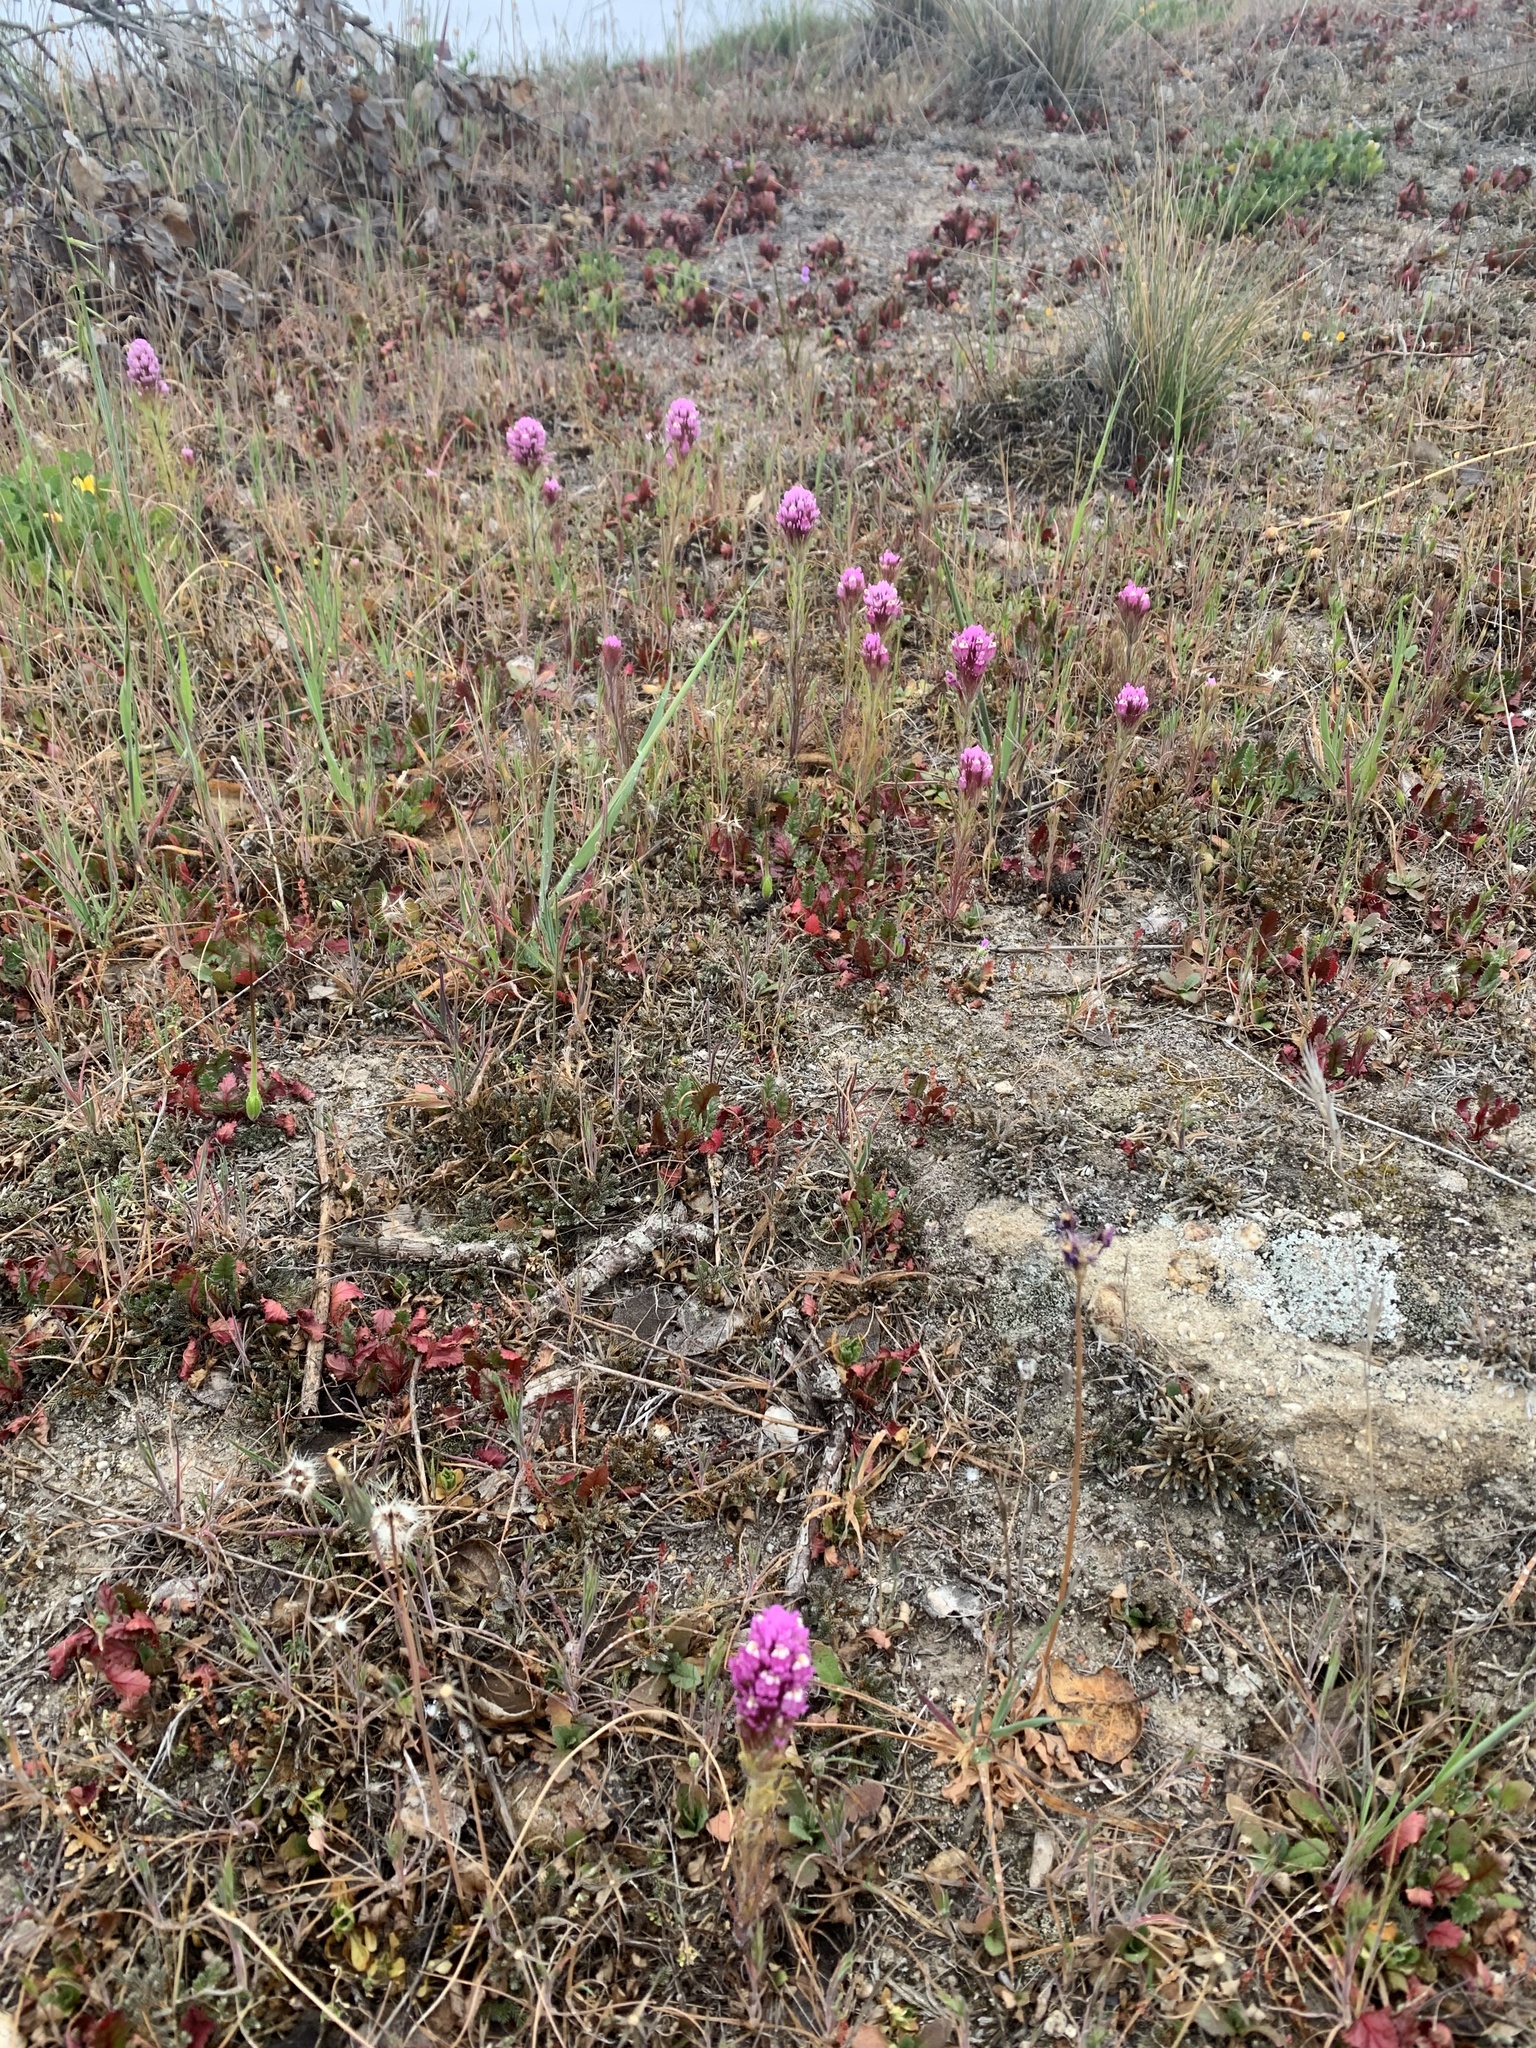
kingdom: Plantae
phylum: Tracheophyta
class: Magnoliopsida
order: Lamiales
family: Orobanchaceae
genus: Castilleja
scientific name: Castilleja exserta
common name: Purple owl-clover
